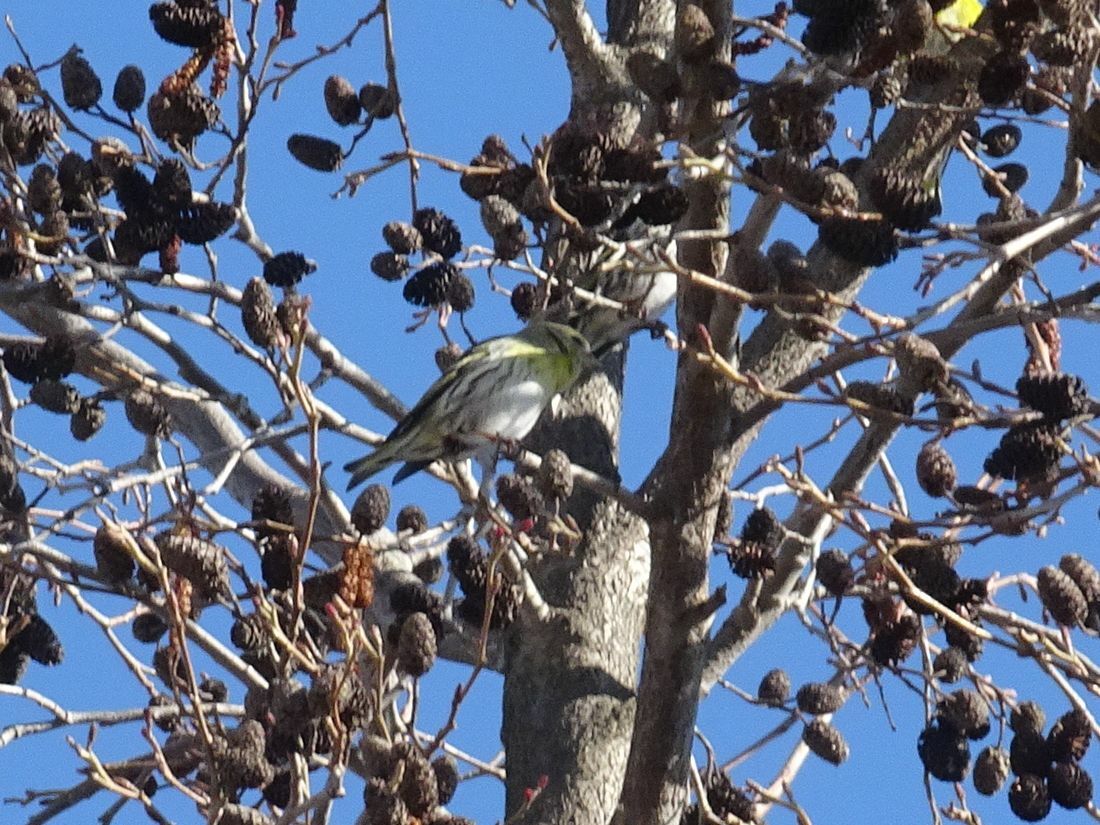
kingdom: Animalia
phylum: Chordata
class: Aves
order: Passeriformes
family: Fringillidae
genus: Spinus
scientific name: Spinus spinus
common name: Eurasian siskin
